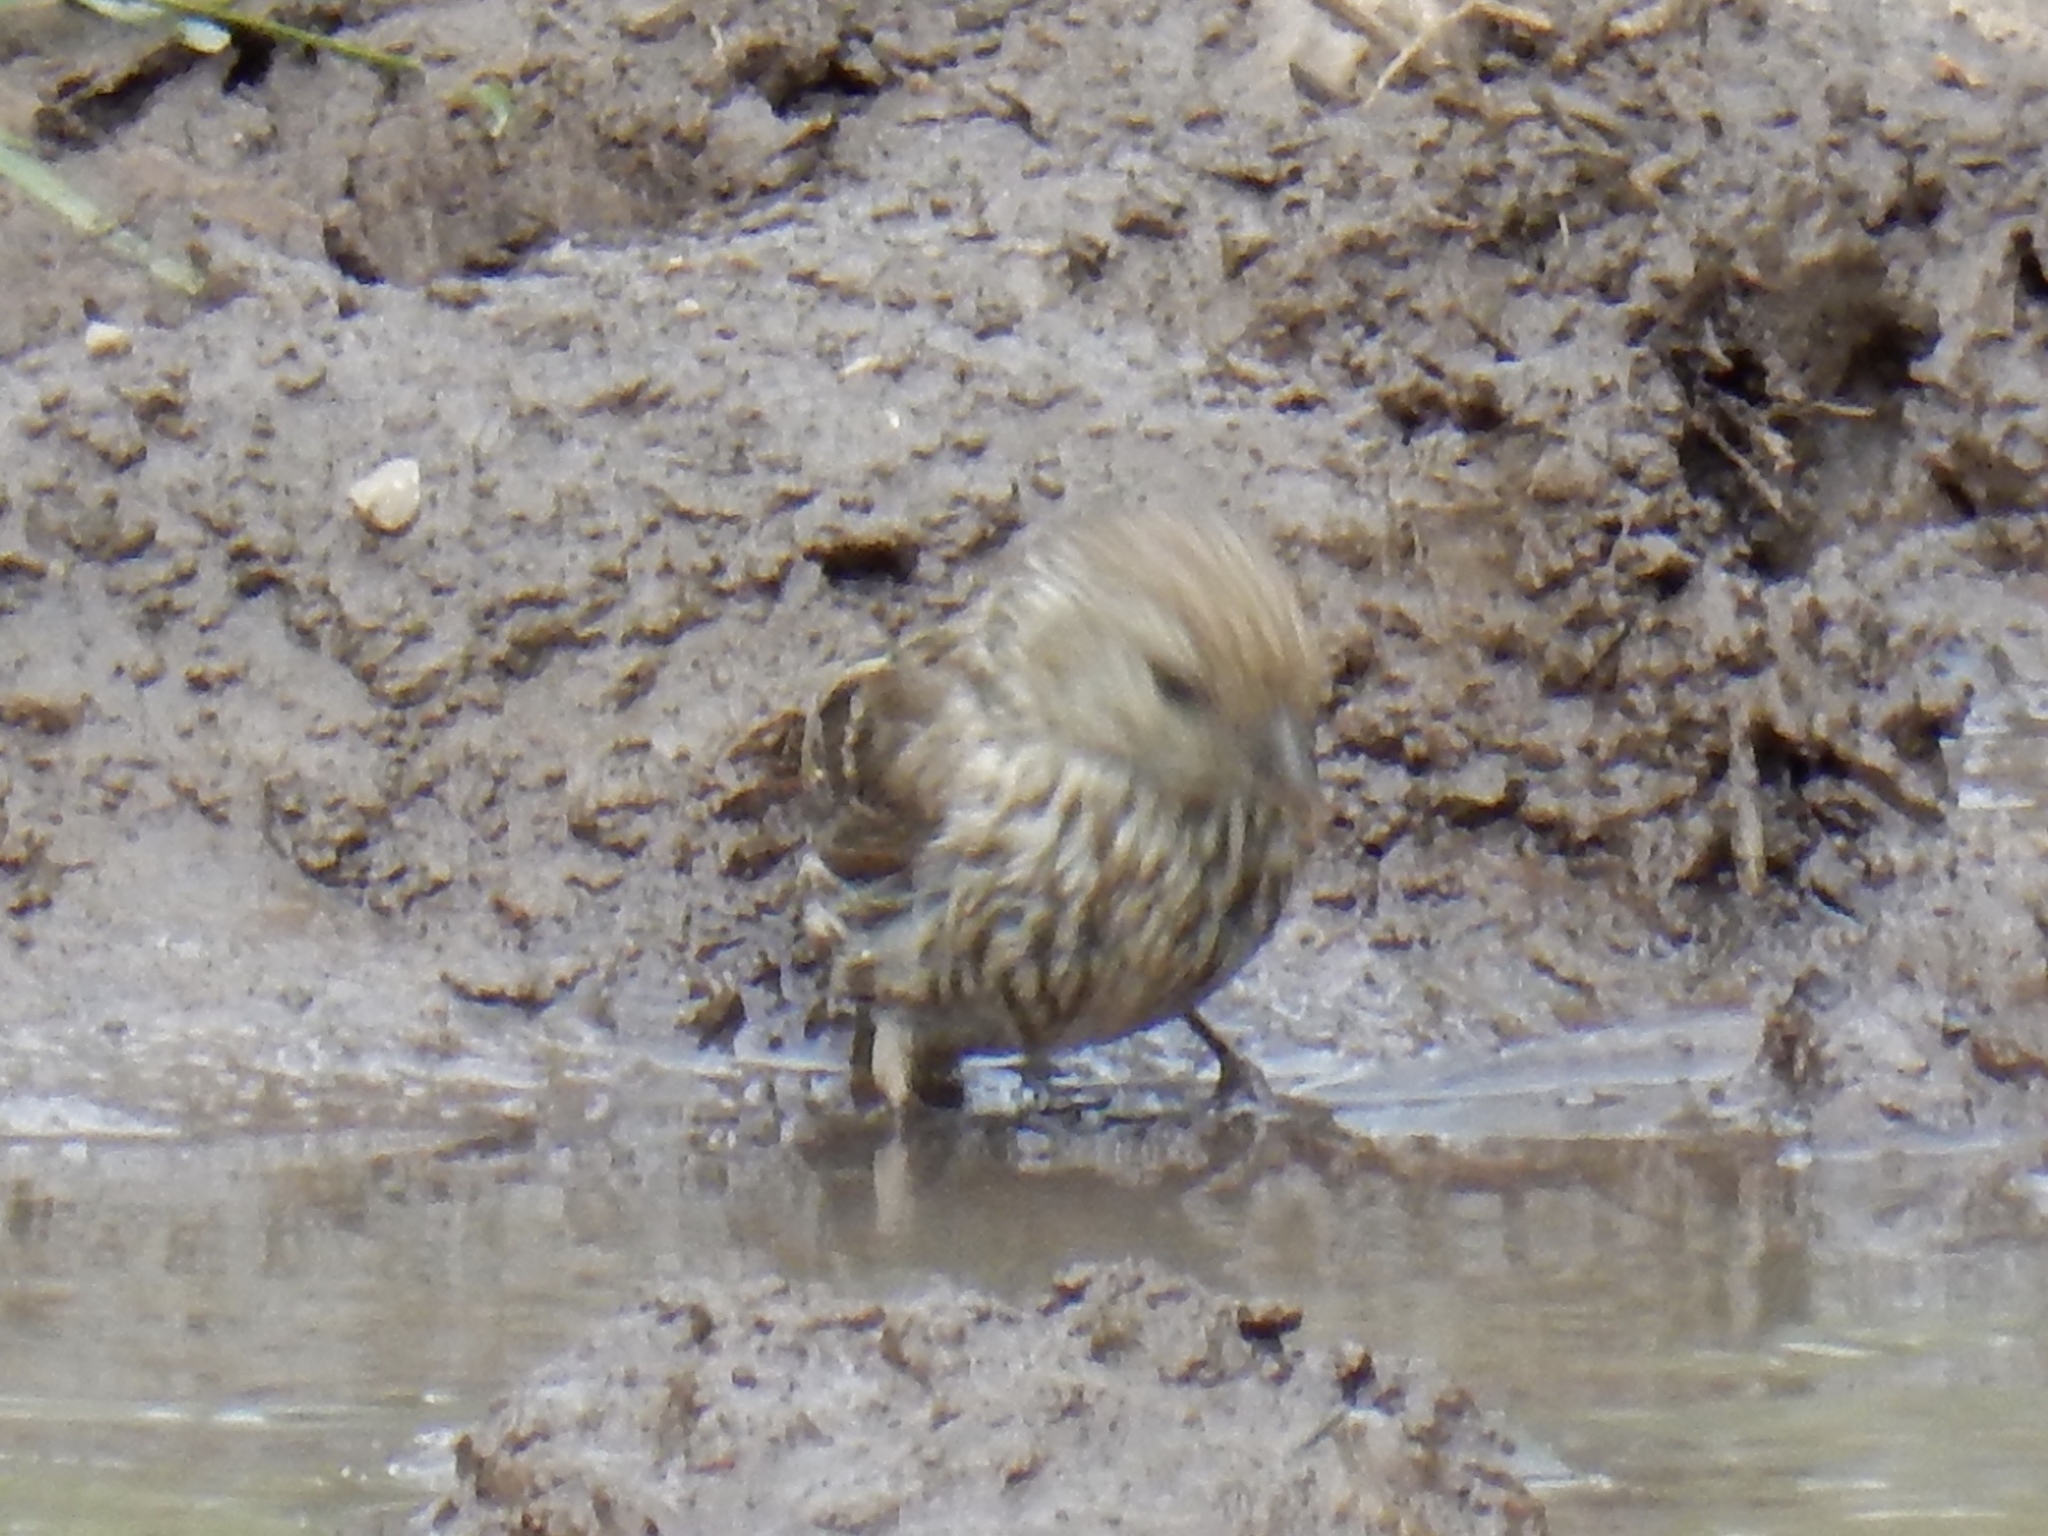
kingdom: Animalia
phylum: Chordata
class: Aves
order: Passeriformes
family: Fringillidae
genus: Spinus
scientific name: Spinus pinus
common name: Pine siskin
